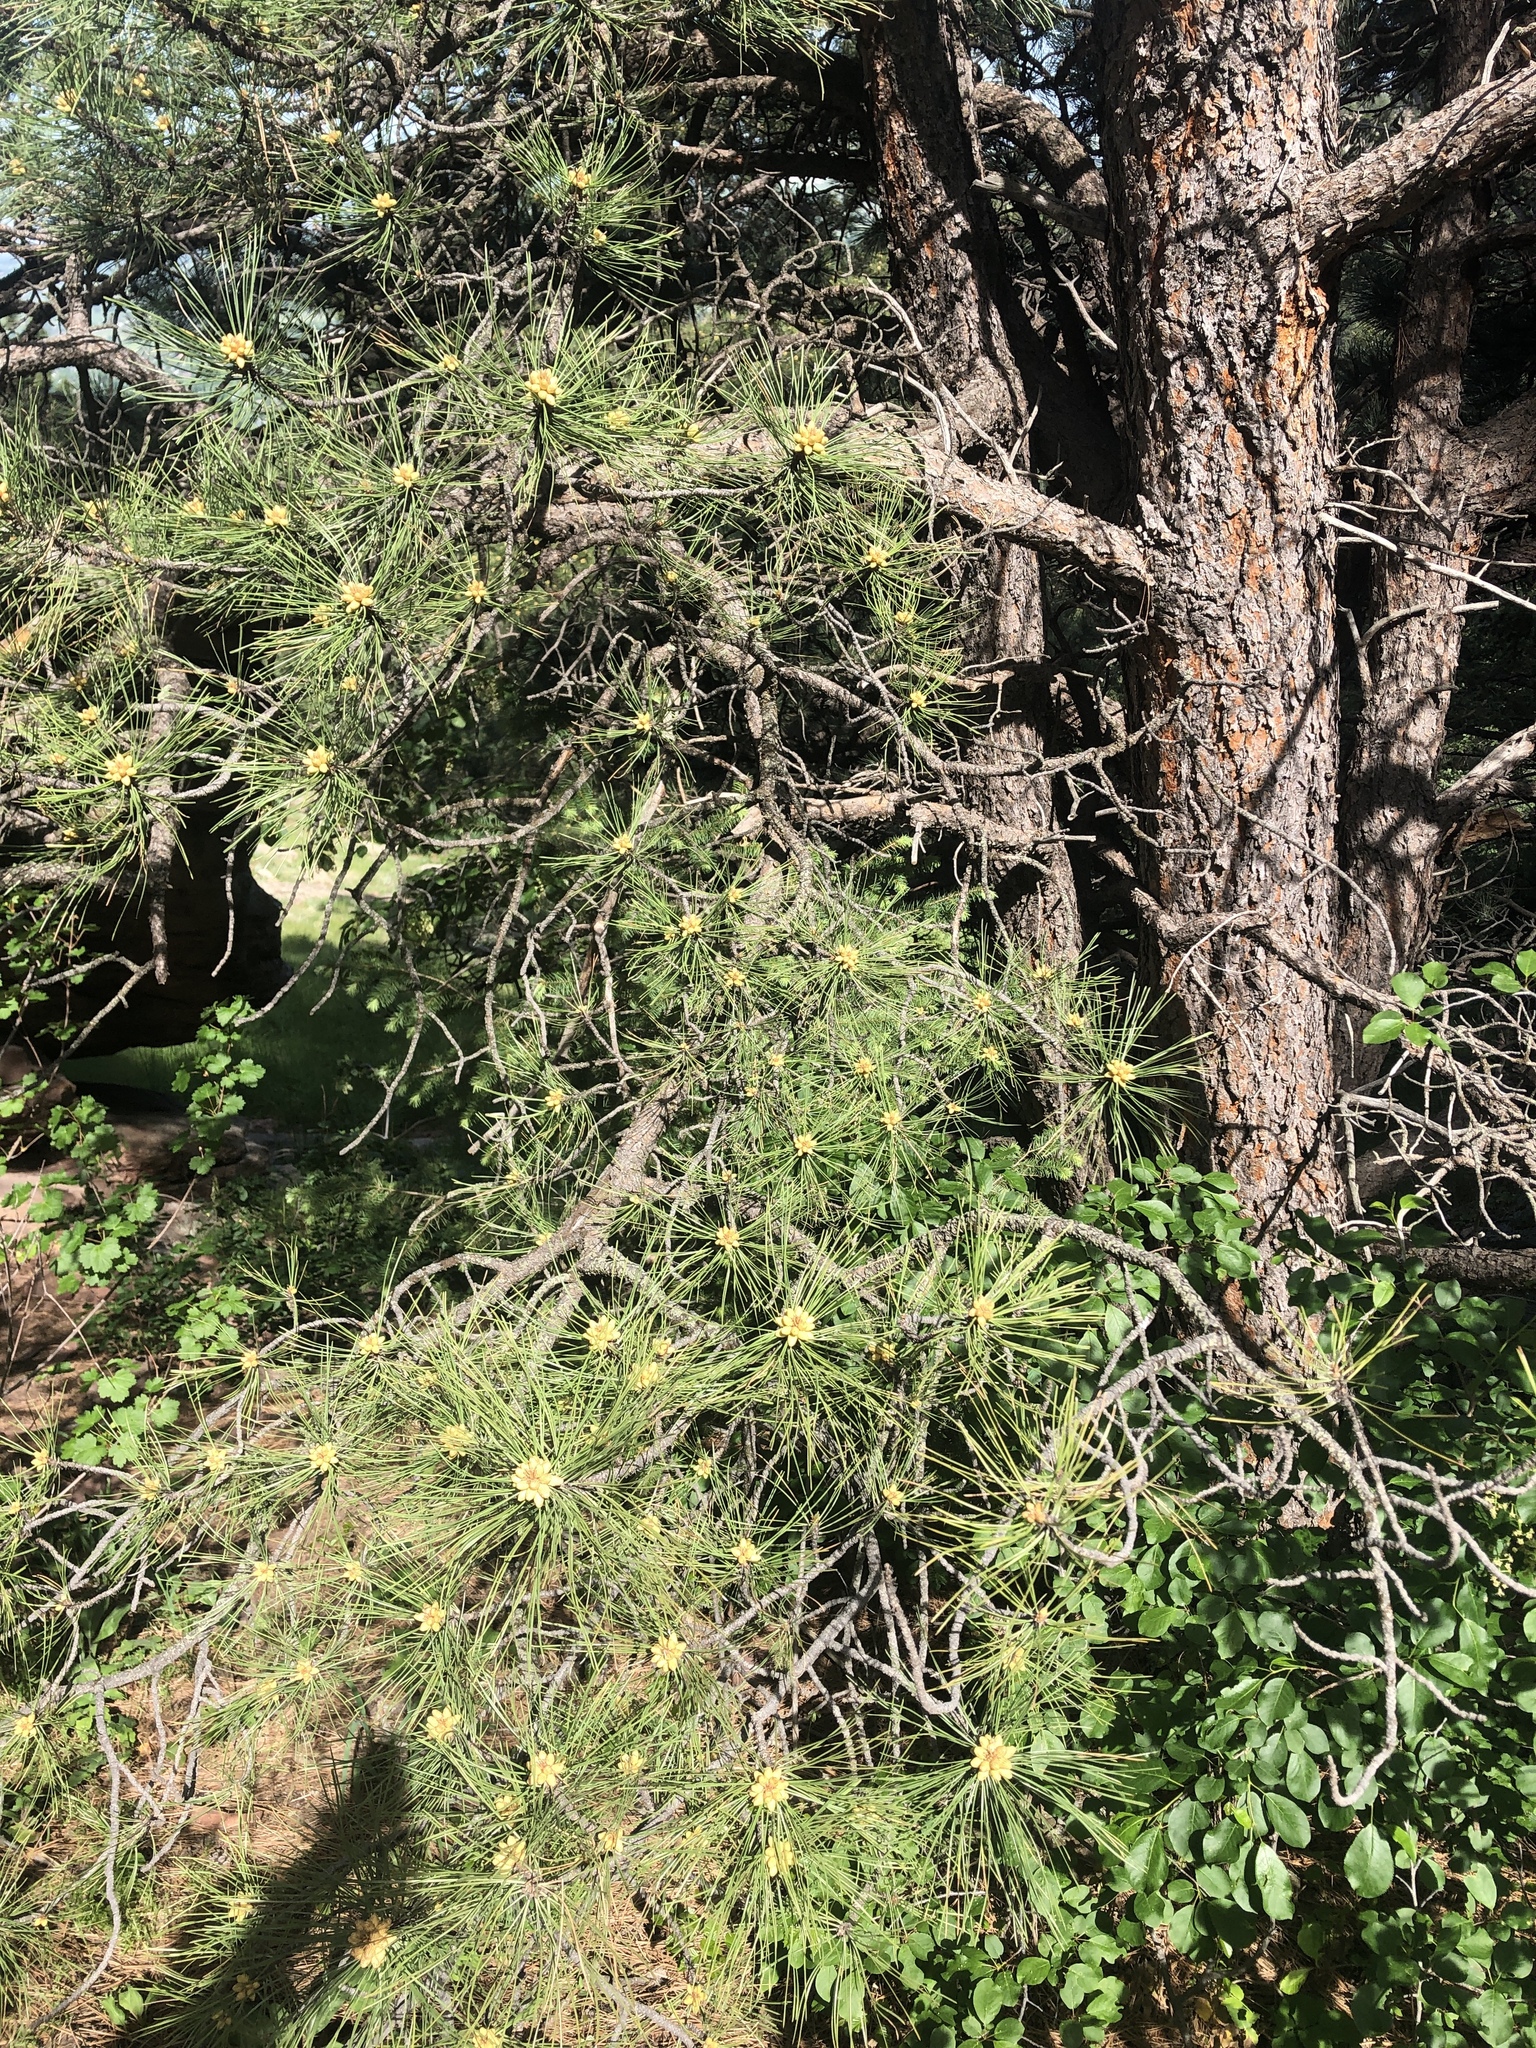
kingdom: Plantae
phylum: Tracheophyta
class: Pinopsida
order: Pinales
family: Pinaceae
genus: Pinus
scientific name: Pinus ponderosa
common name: Western yellow-pine
